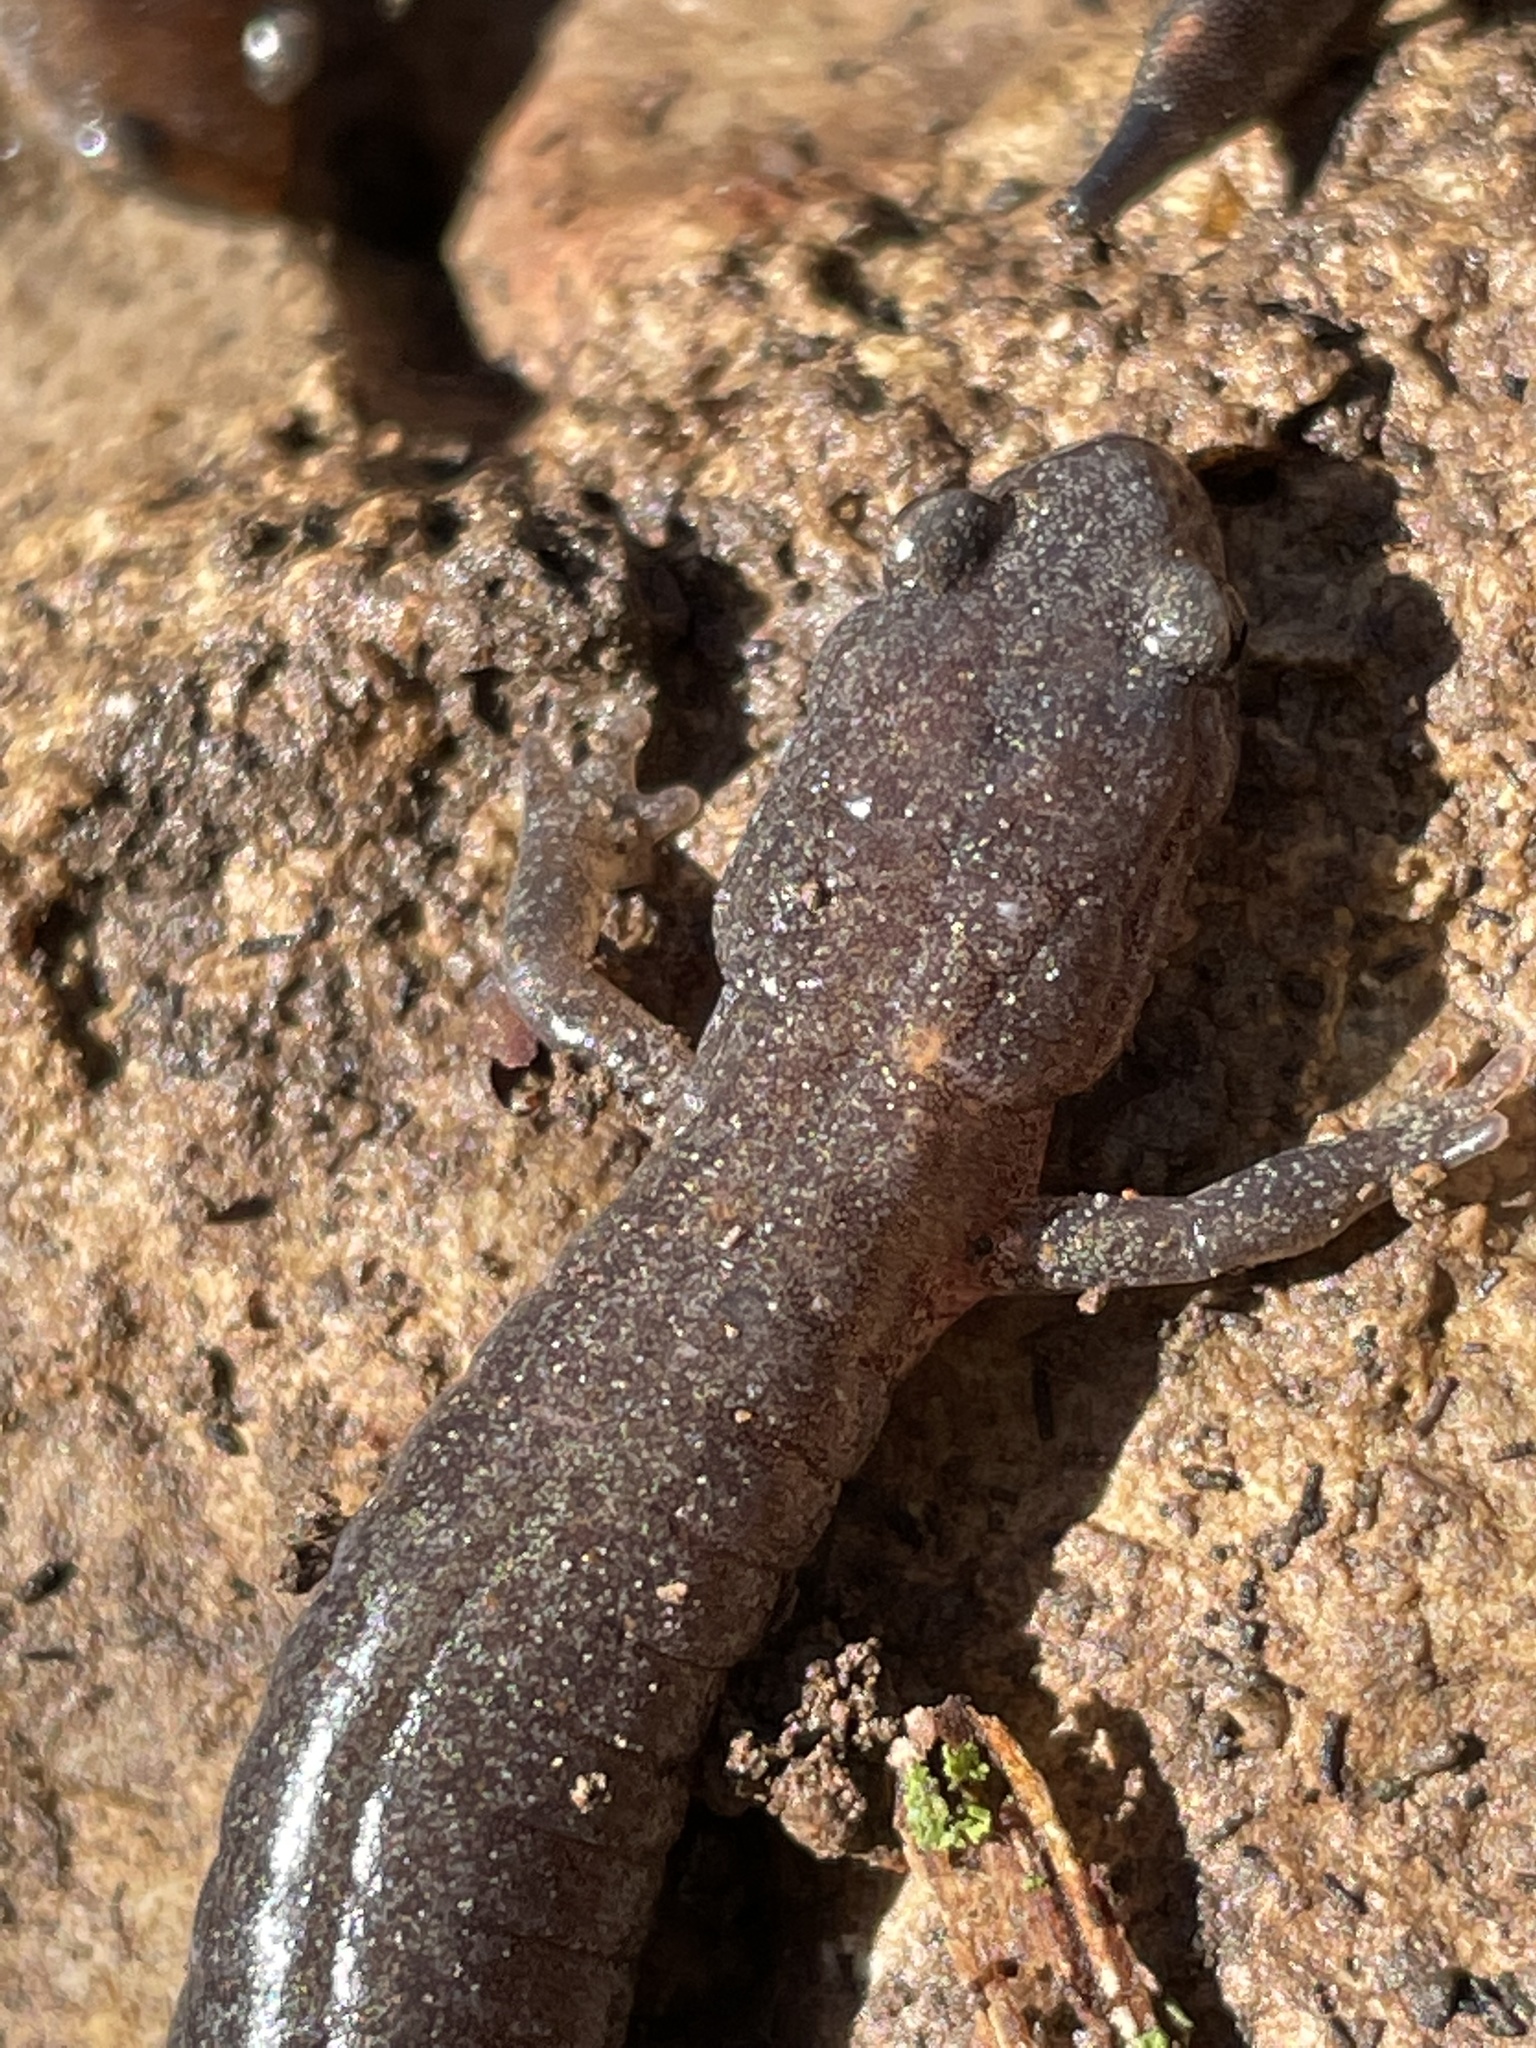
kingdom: Animalia
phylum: Chordata
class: Amphibia
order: Caudata
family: Plethodontidae
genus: Plethodon
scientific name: Plethodon dorsalis
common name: Northern zigzag salamander
